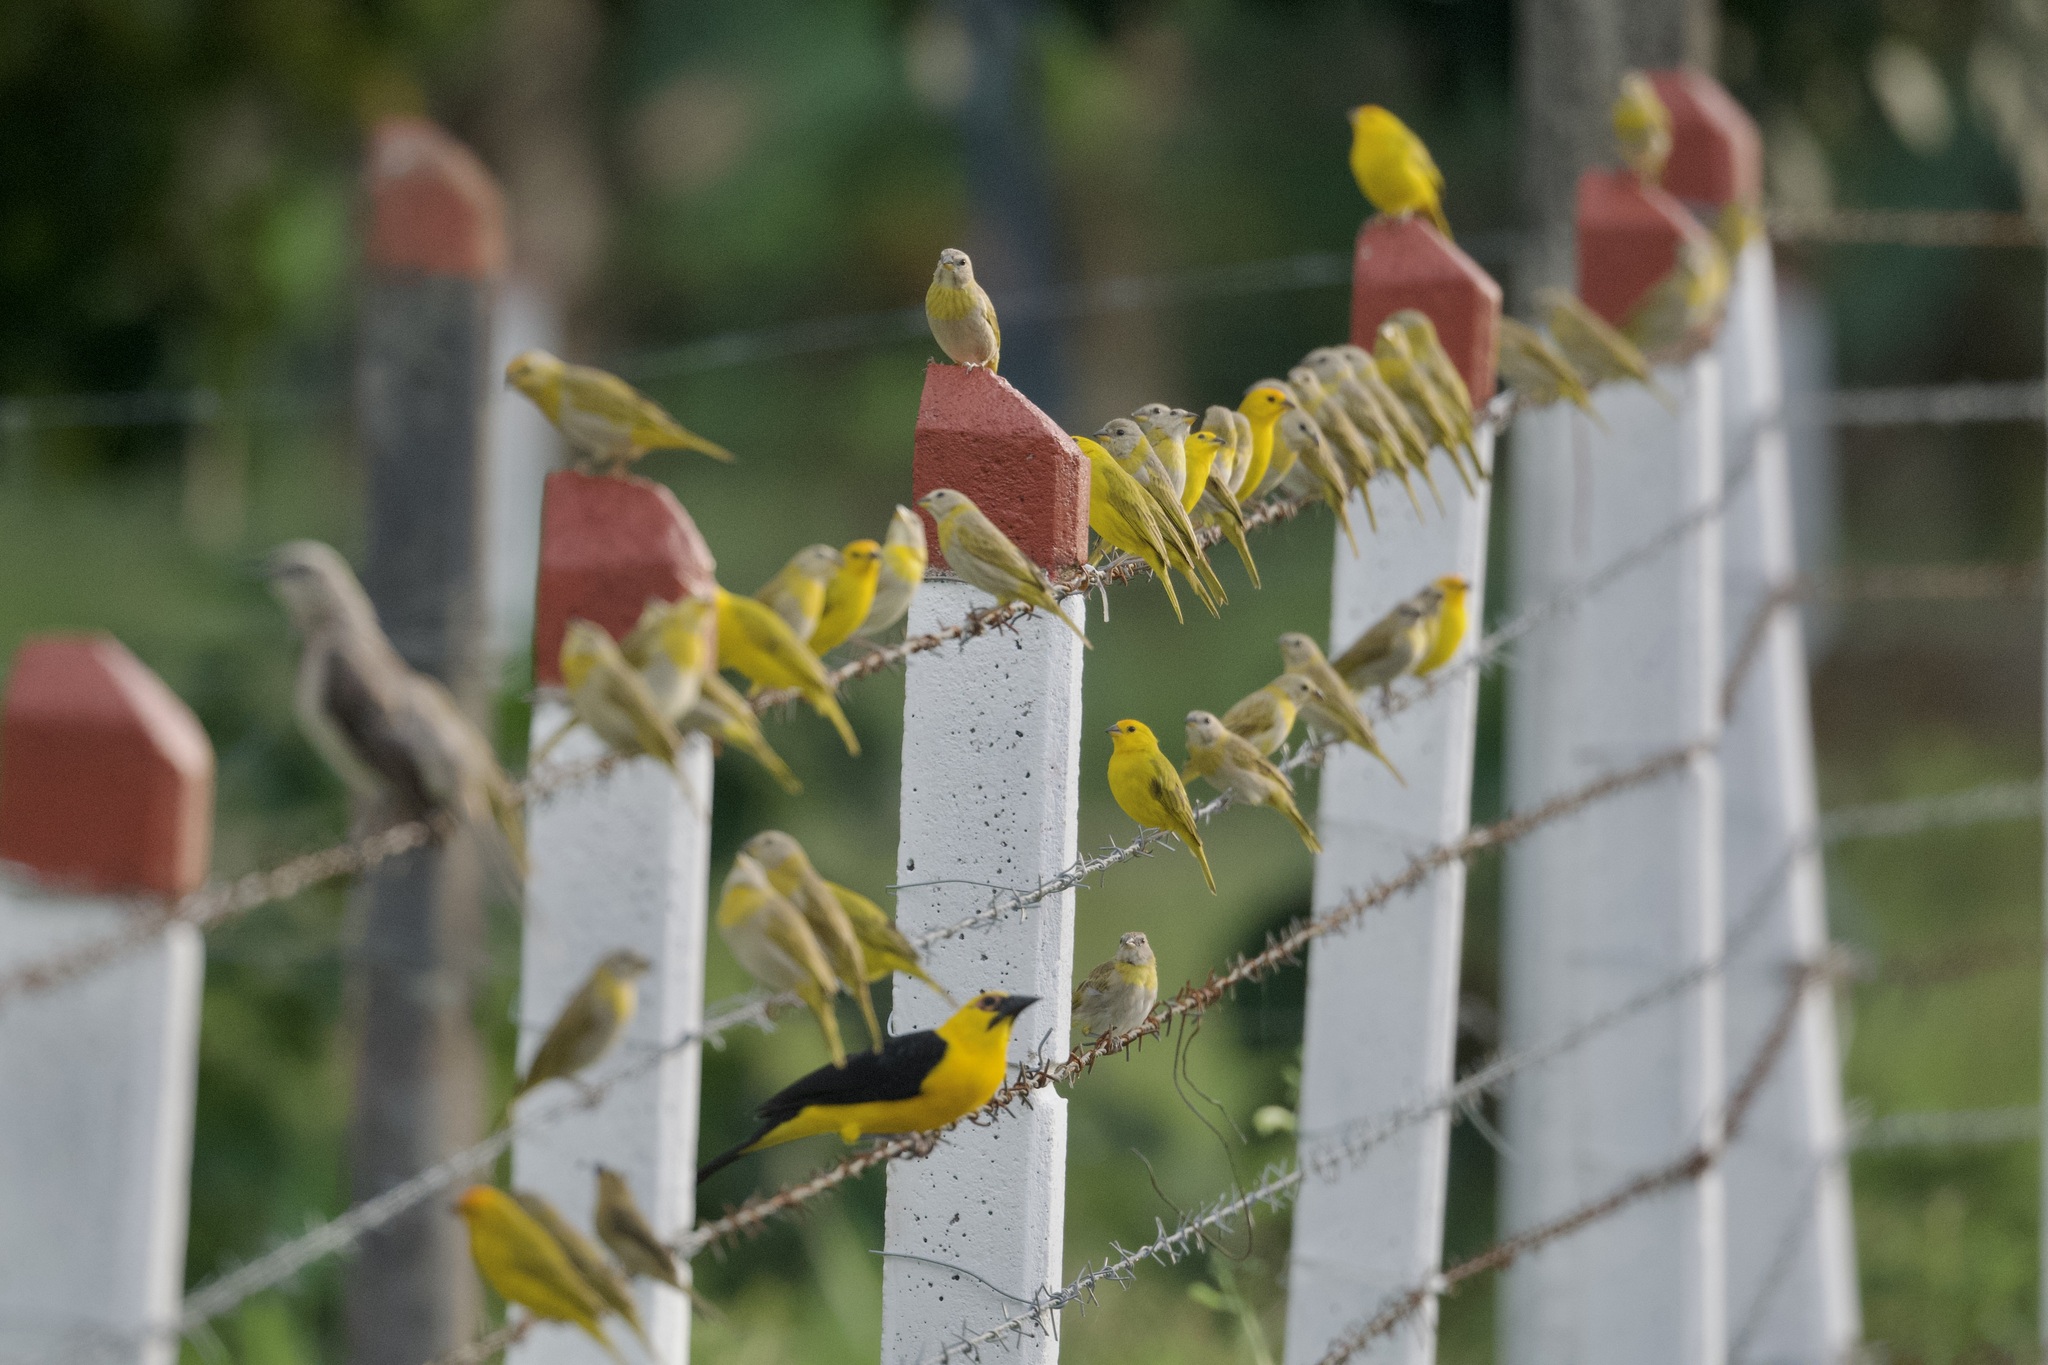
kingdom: Animalia
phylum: Chordata
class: Aves
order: Caprimulgiformes
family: Caprimulgidae
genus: Nyctidromus
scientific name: Nyctidromus albicollis
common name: Pauraque
